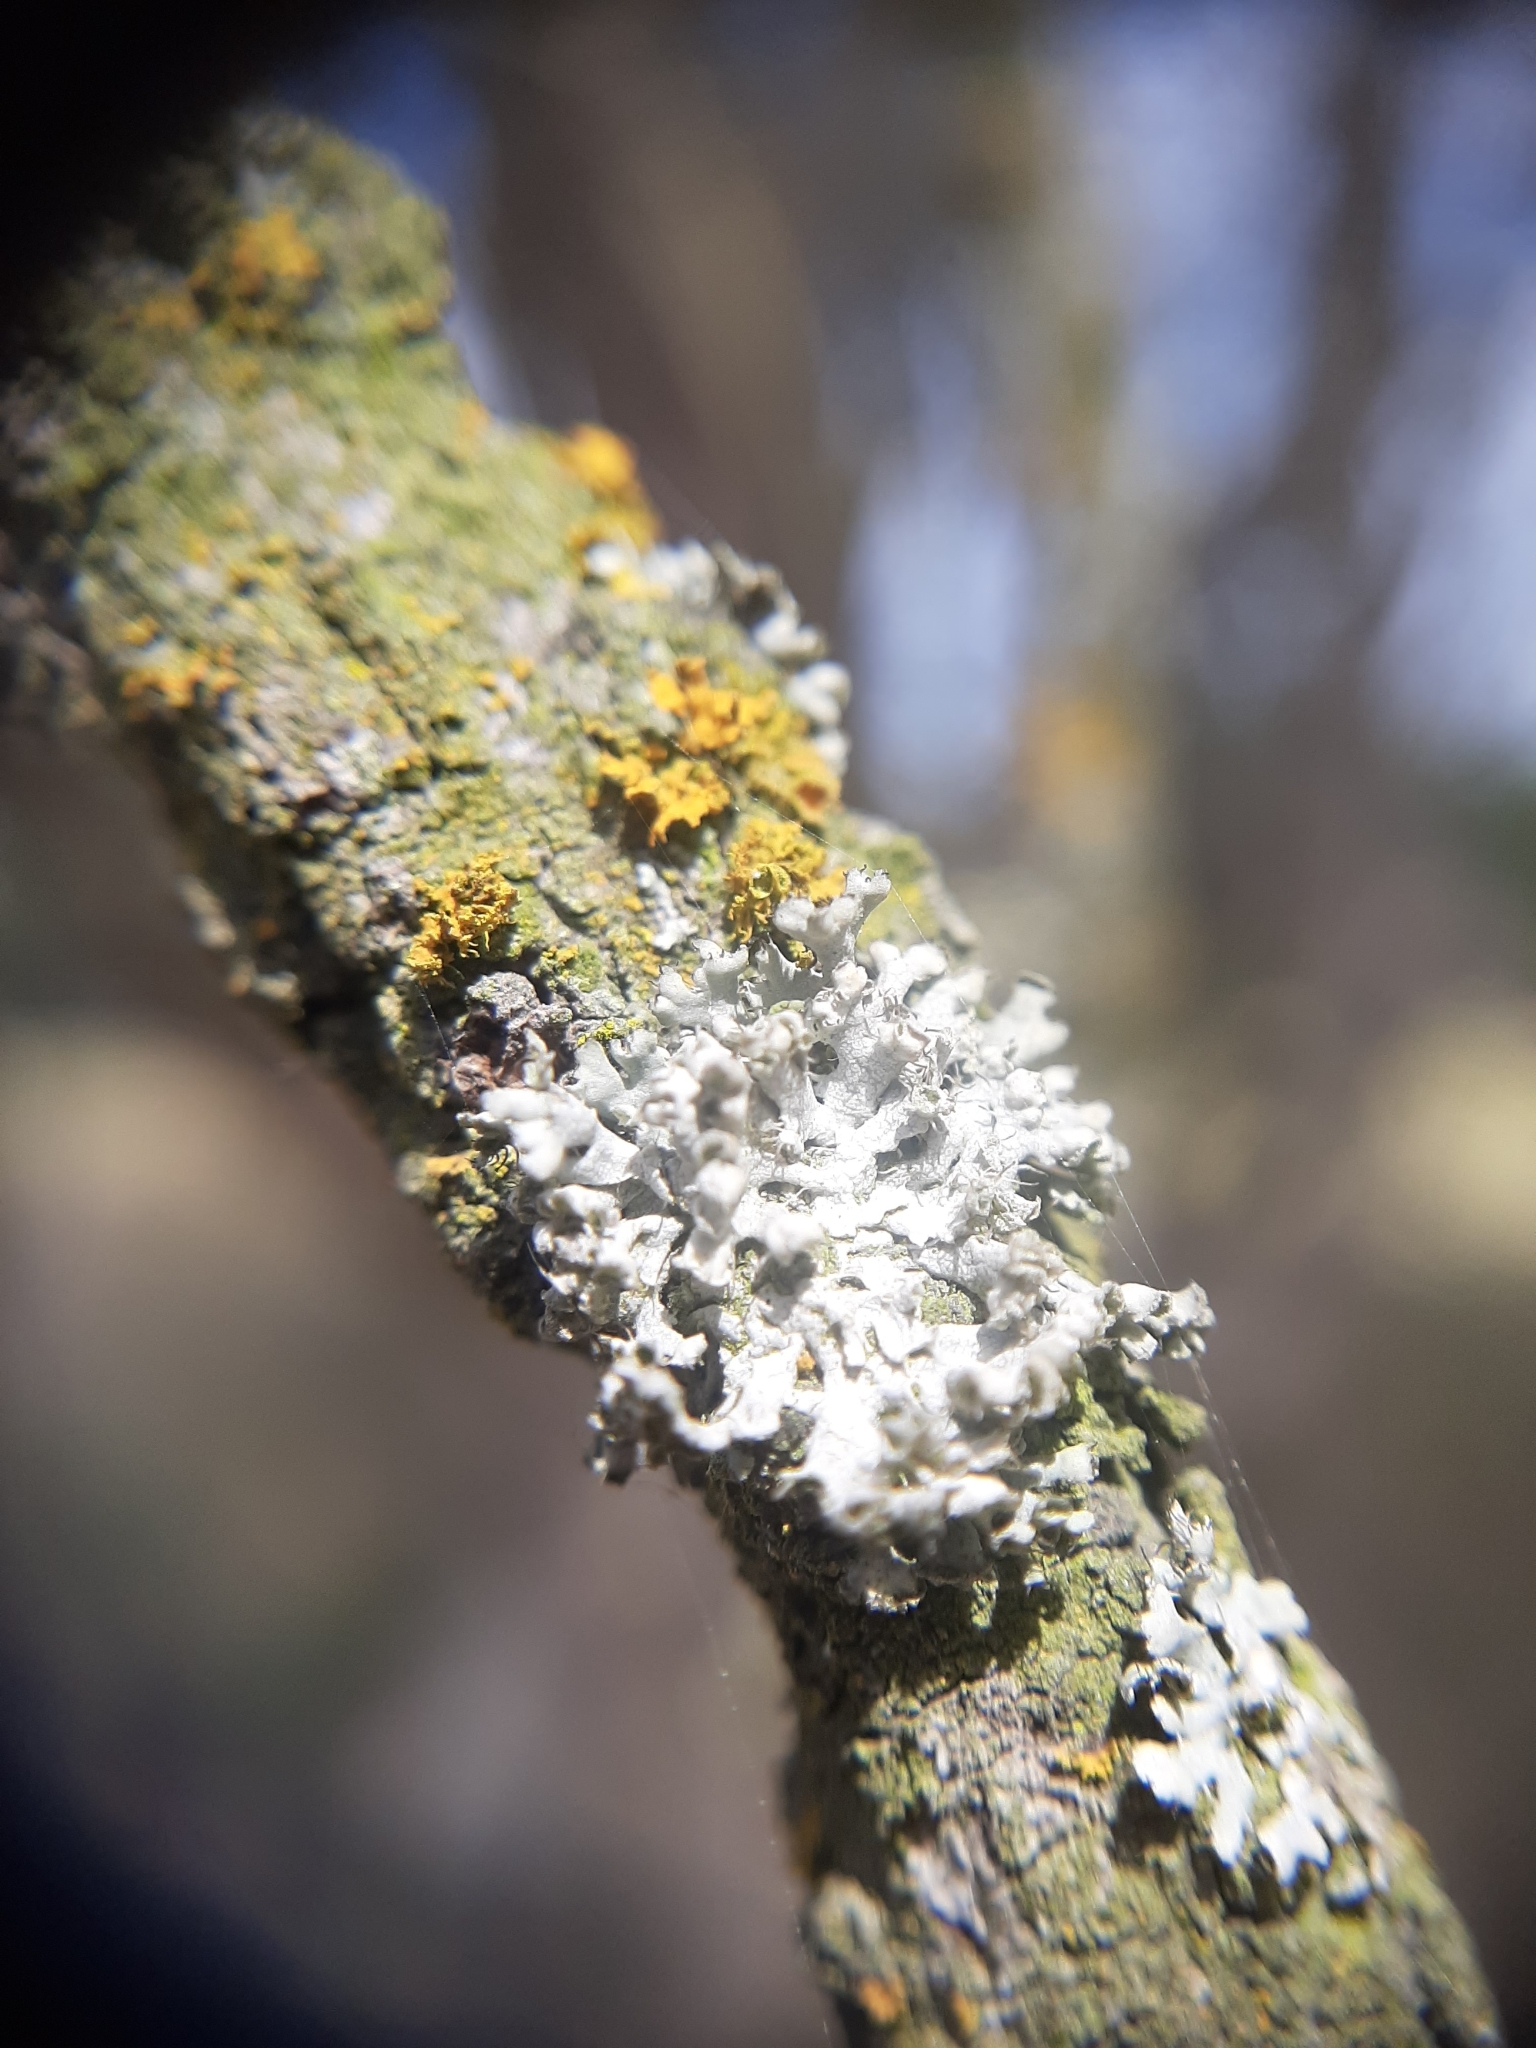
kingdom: Fungi
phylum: Ascomycota
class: Lecanoromycetes
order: Caliciales
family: Physciaceae
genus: Physcia
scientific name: Physcia adscendens
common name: Hooded rosette lichen
